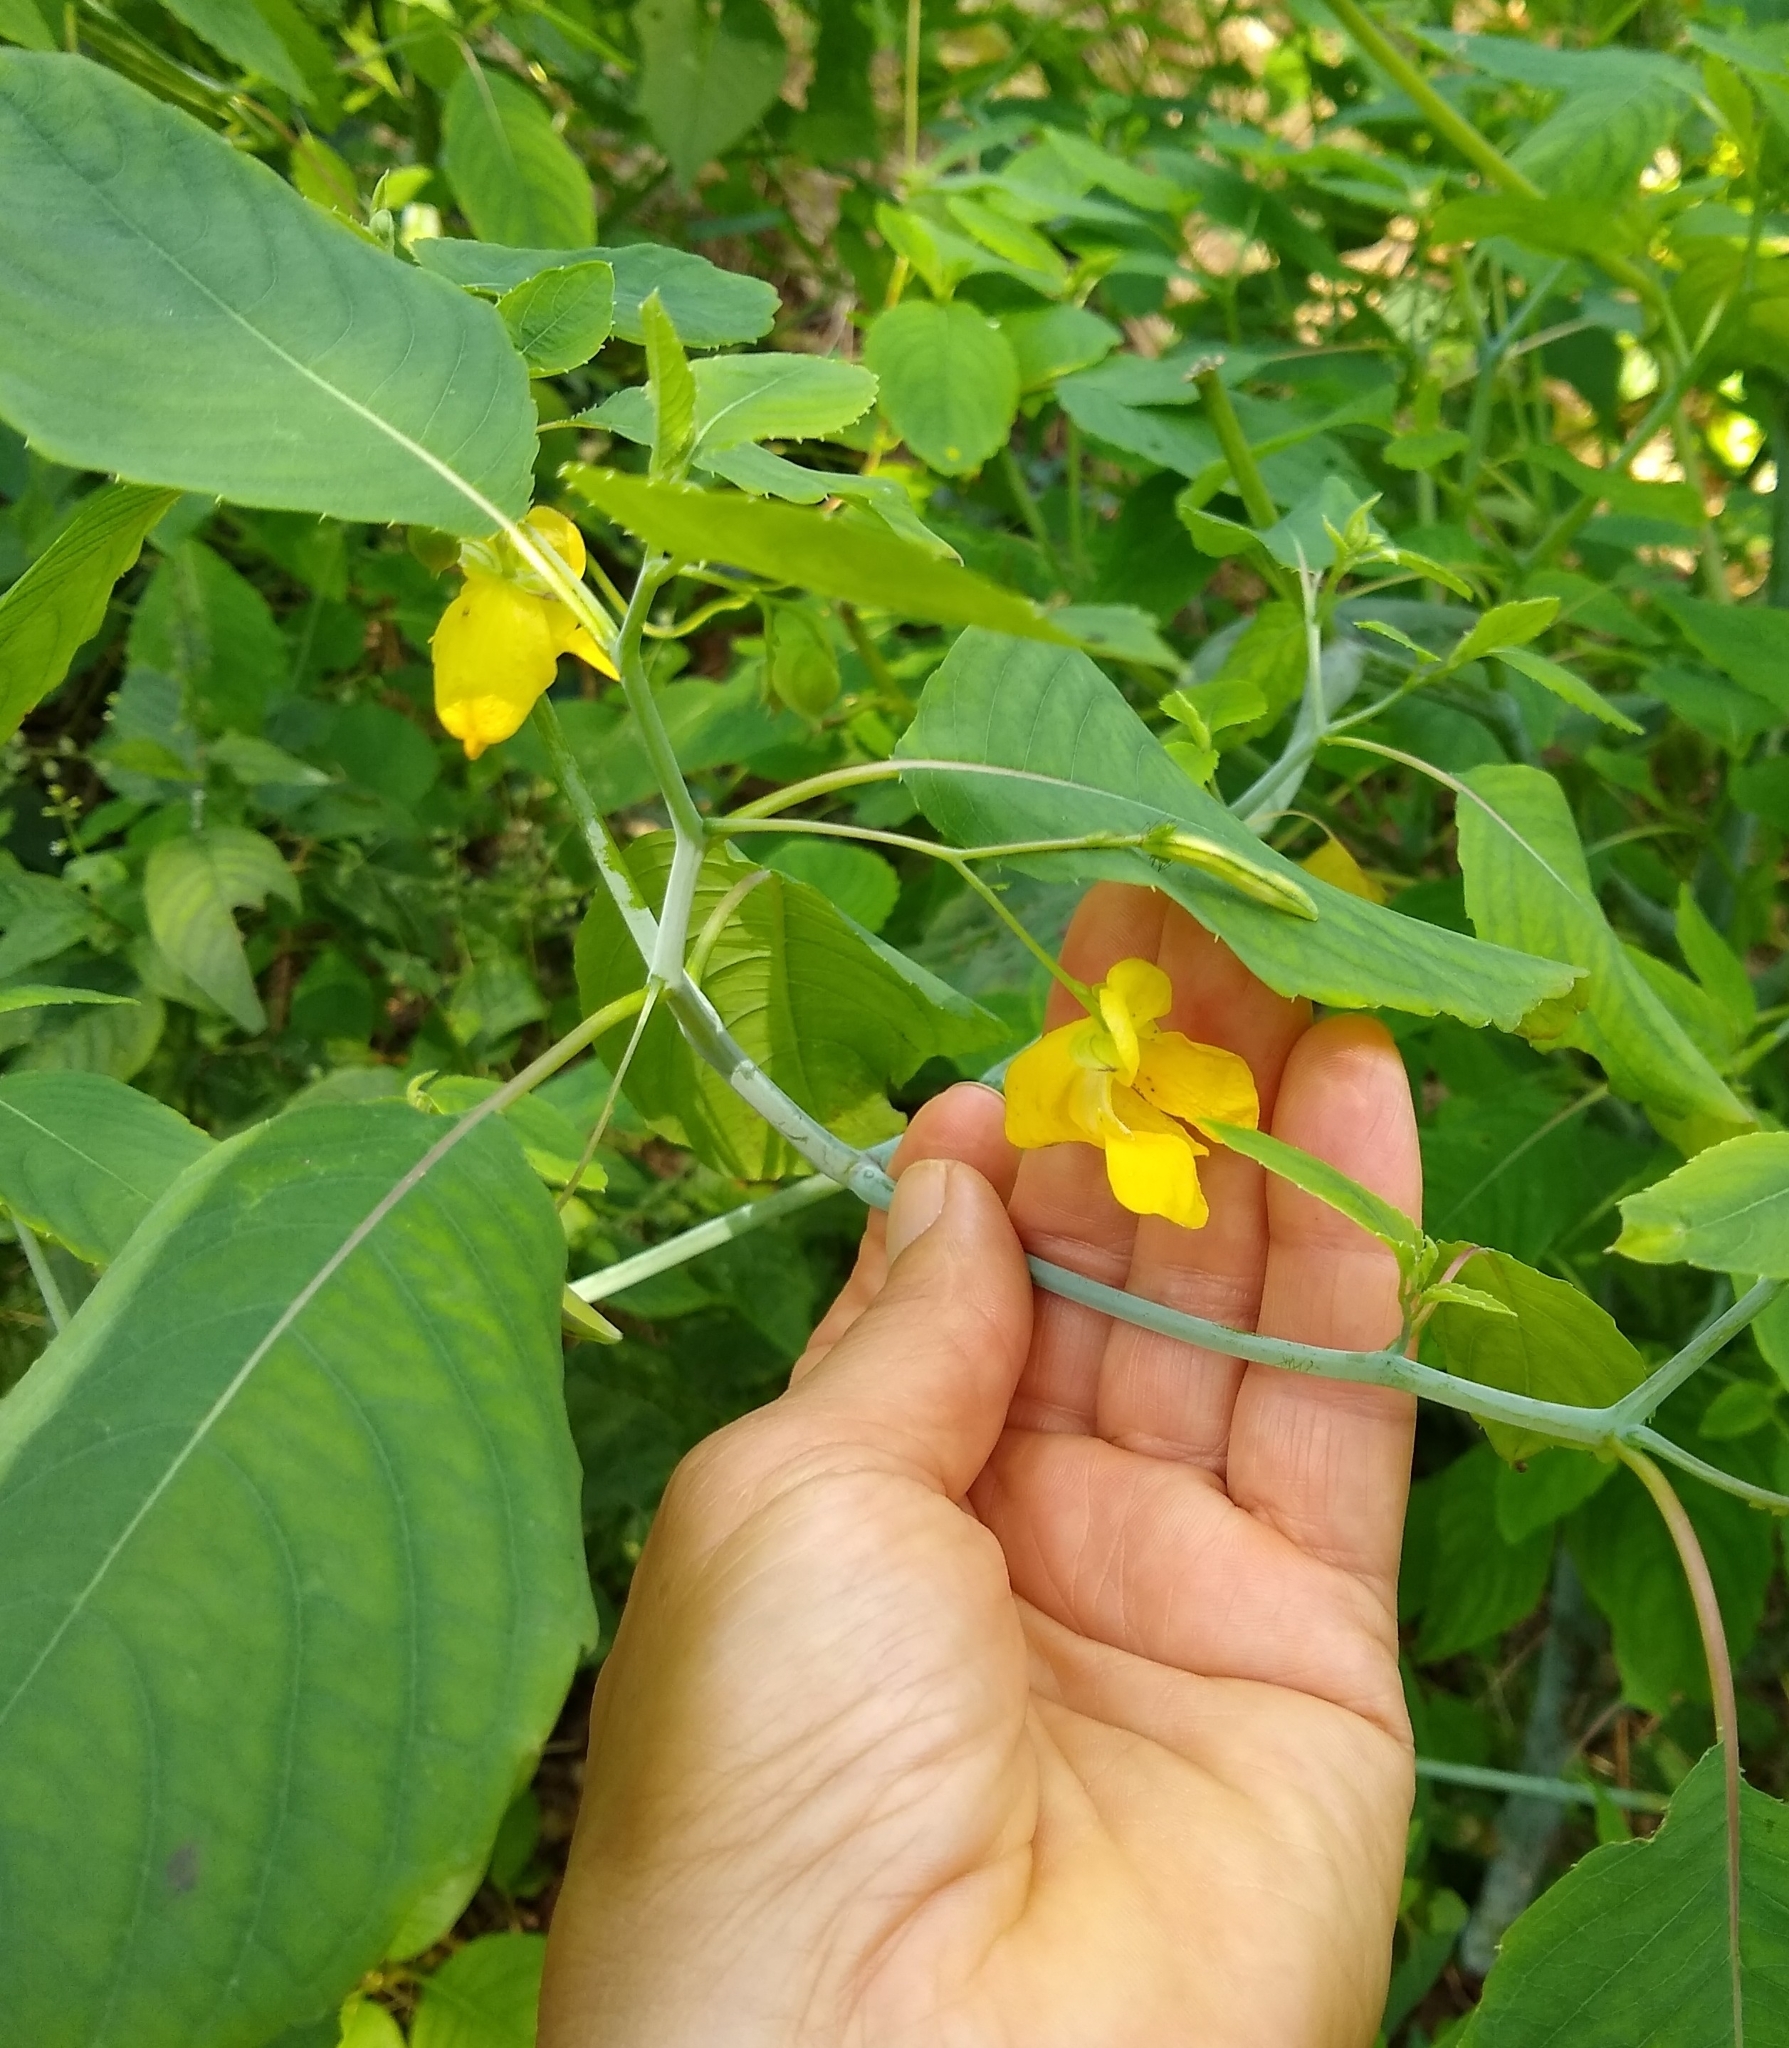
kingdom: Plantae
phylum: Tracheophyta
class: Magnoliopsida
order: Ericales
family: Balsaminaceae
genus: Impatiens
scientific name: Impatiens pallida
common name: Pale snapweed
